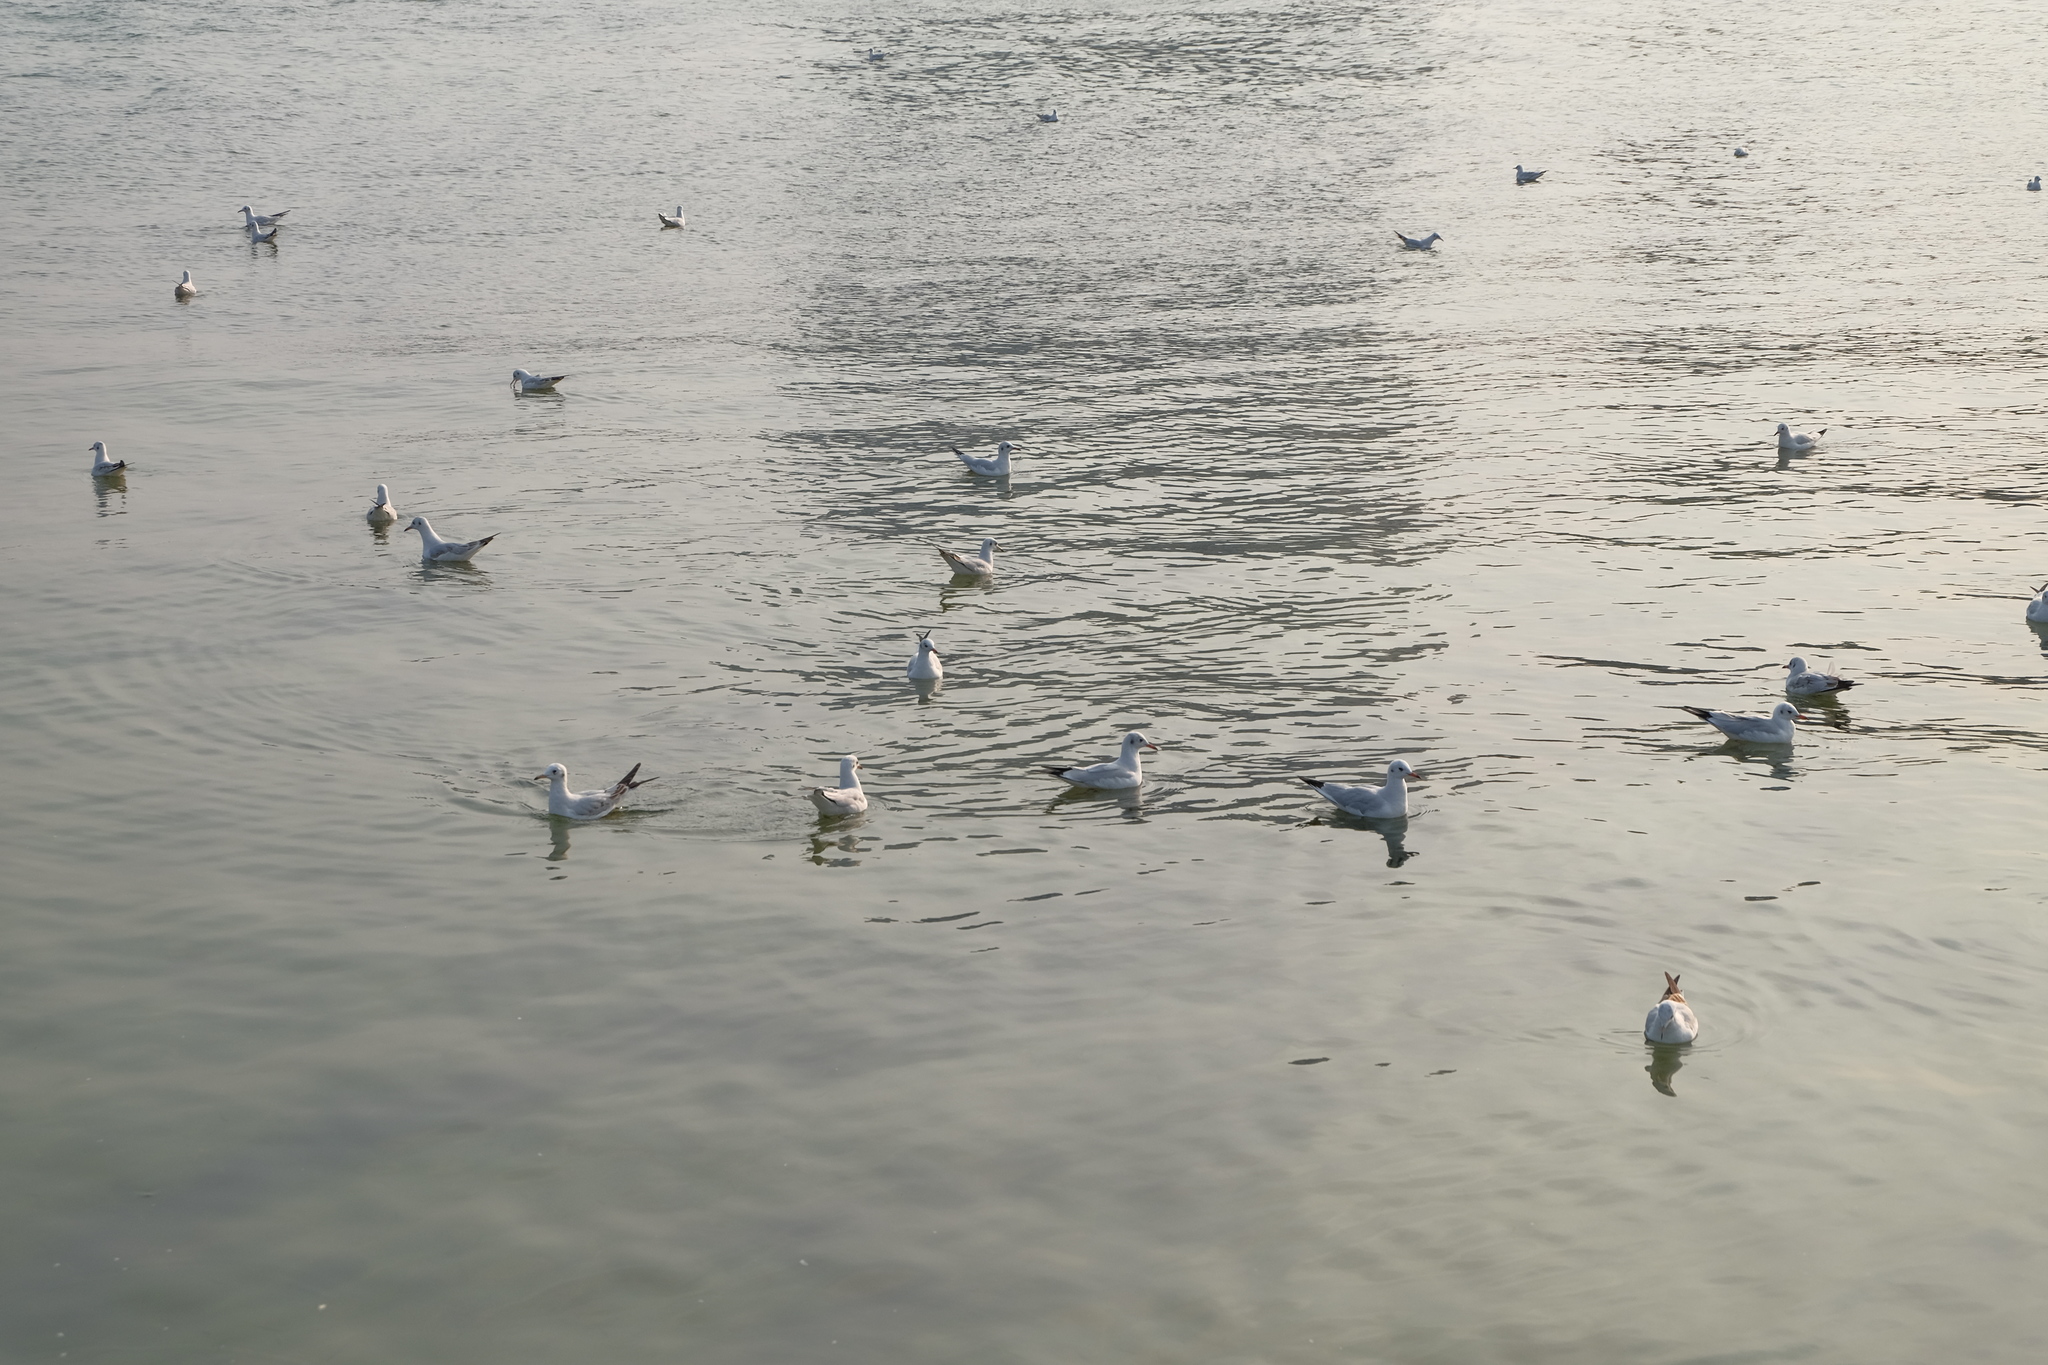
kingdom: Animalia
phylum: Chordata
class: Aves
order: Charadriiformes
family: Laridae
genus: Chroicocephalus
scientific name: Chroicocephalus ridibundus
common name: Black-headed gull
